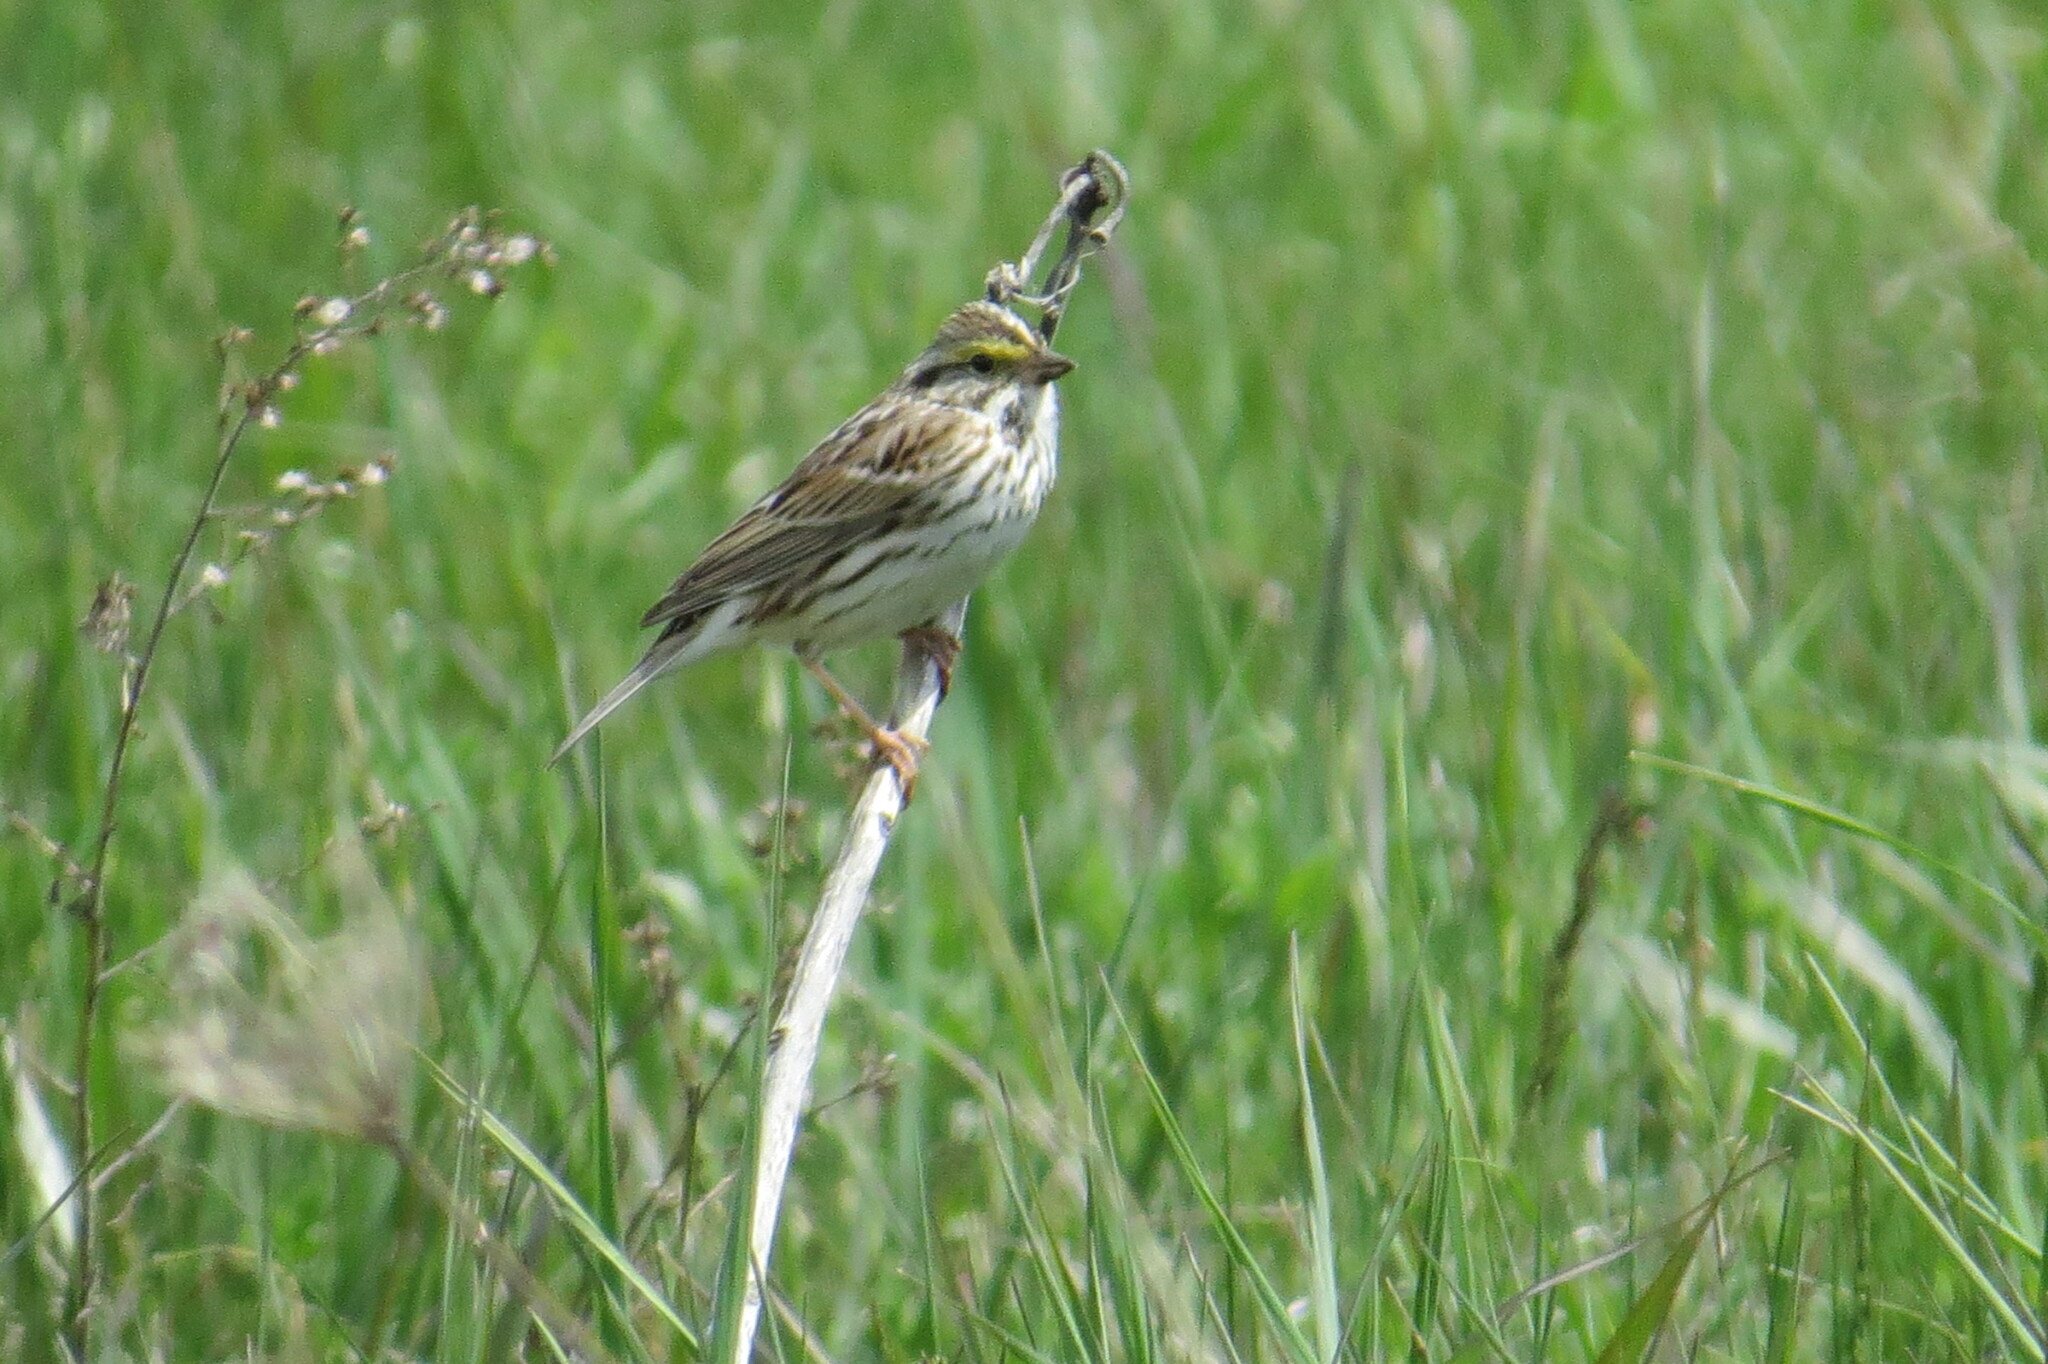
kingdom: Animalia
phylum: Chordata
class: Aves
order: Passeriformes
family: Passerellidae
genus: Passerculus
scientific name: Passerculus sandwichensis
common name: Savannah sparrow
